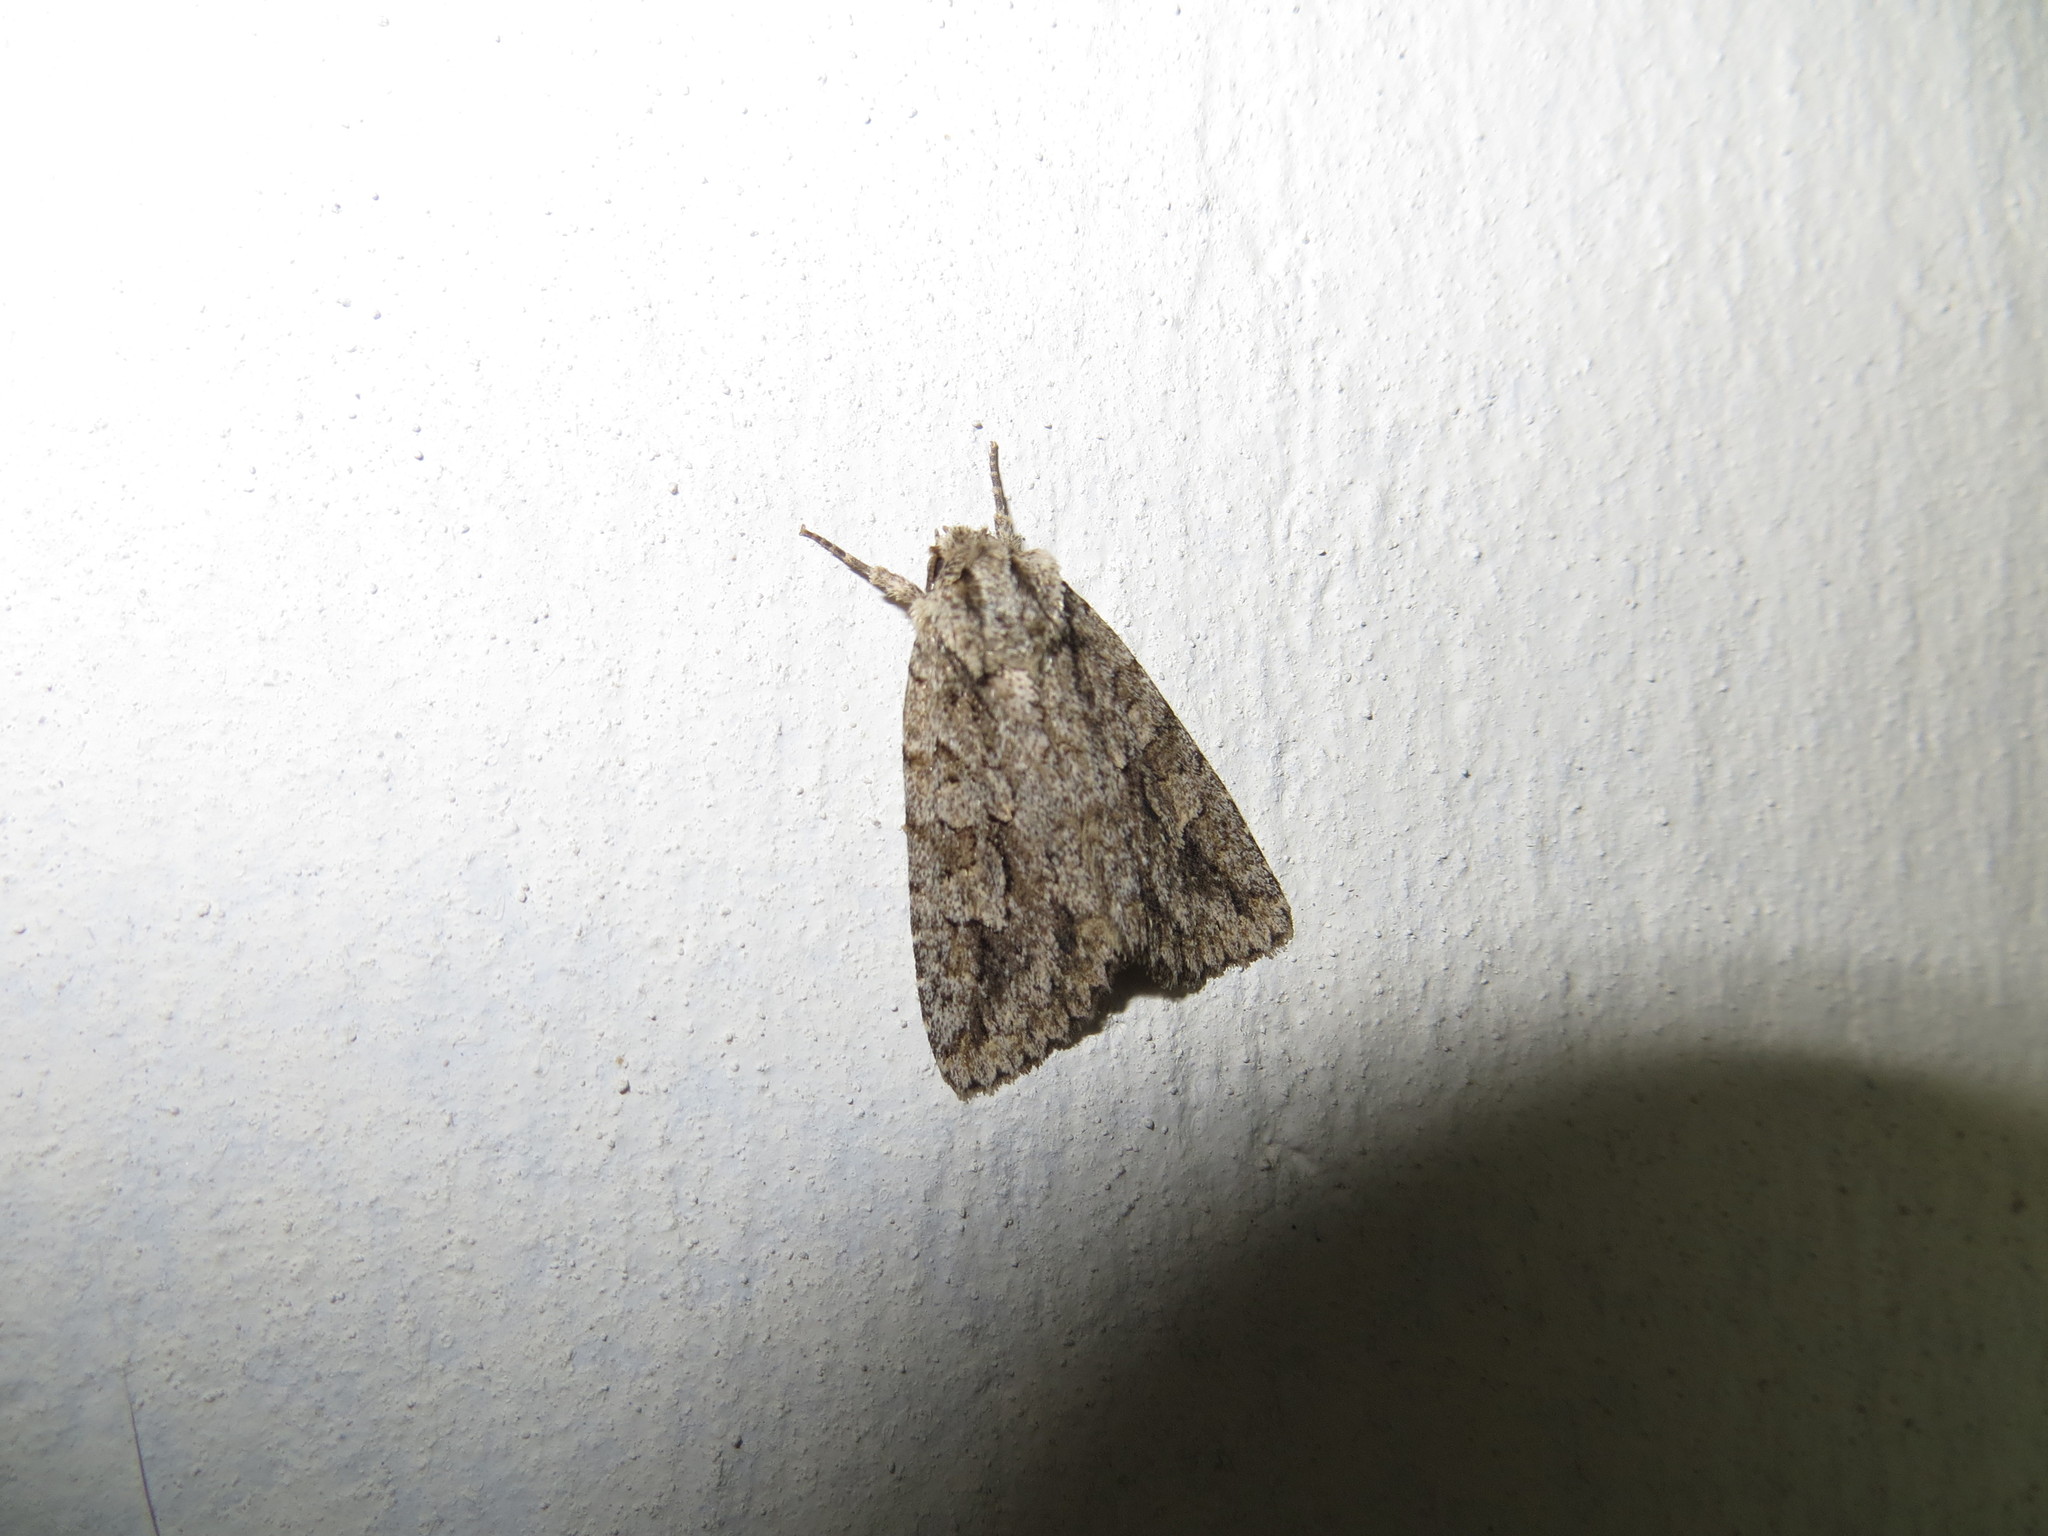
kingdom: Animalia
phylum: Arthropoda
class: Insecta
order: Lepidoptera
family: Noctuidae
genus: Phidrimana
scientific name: Phidrimana amurensis
